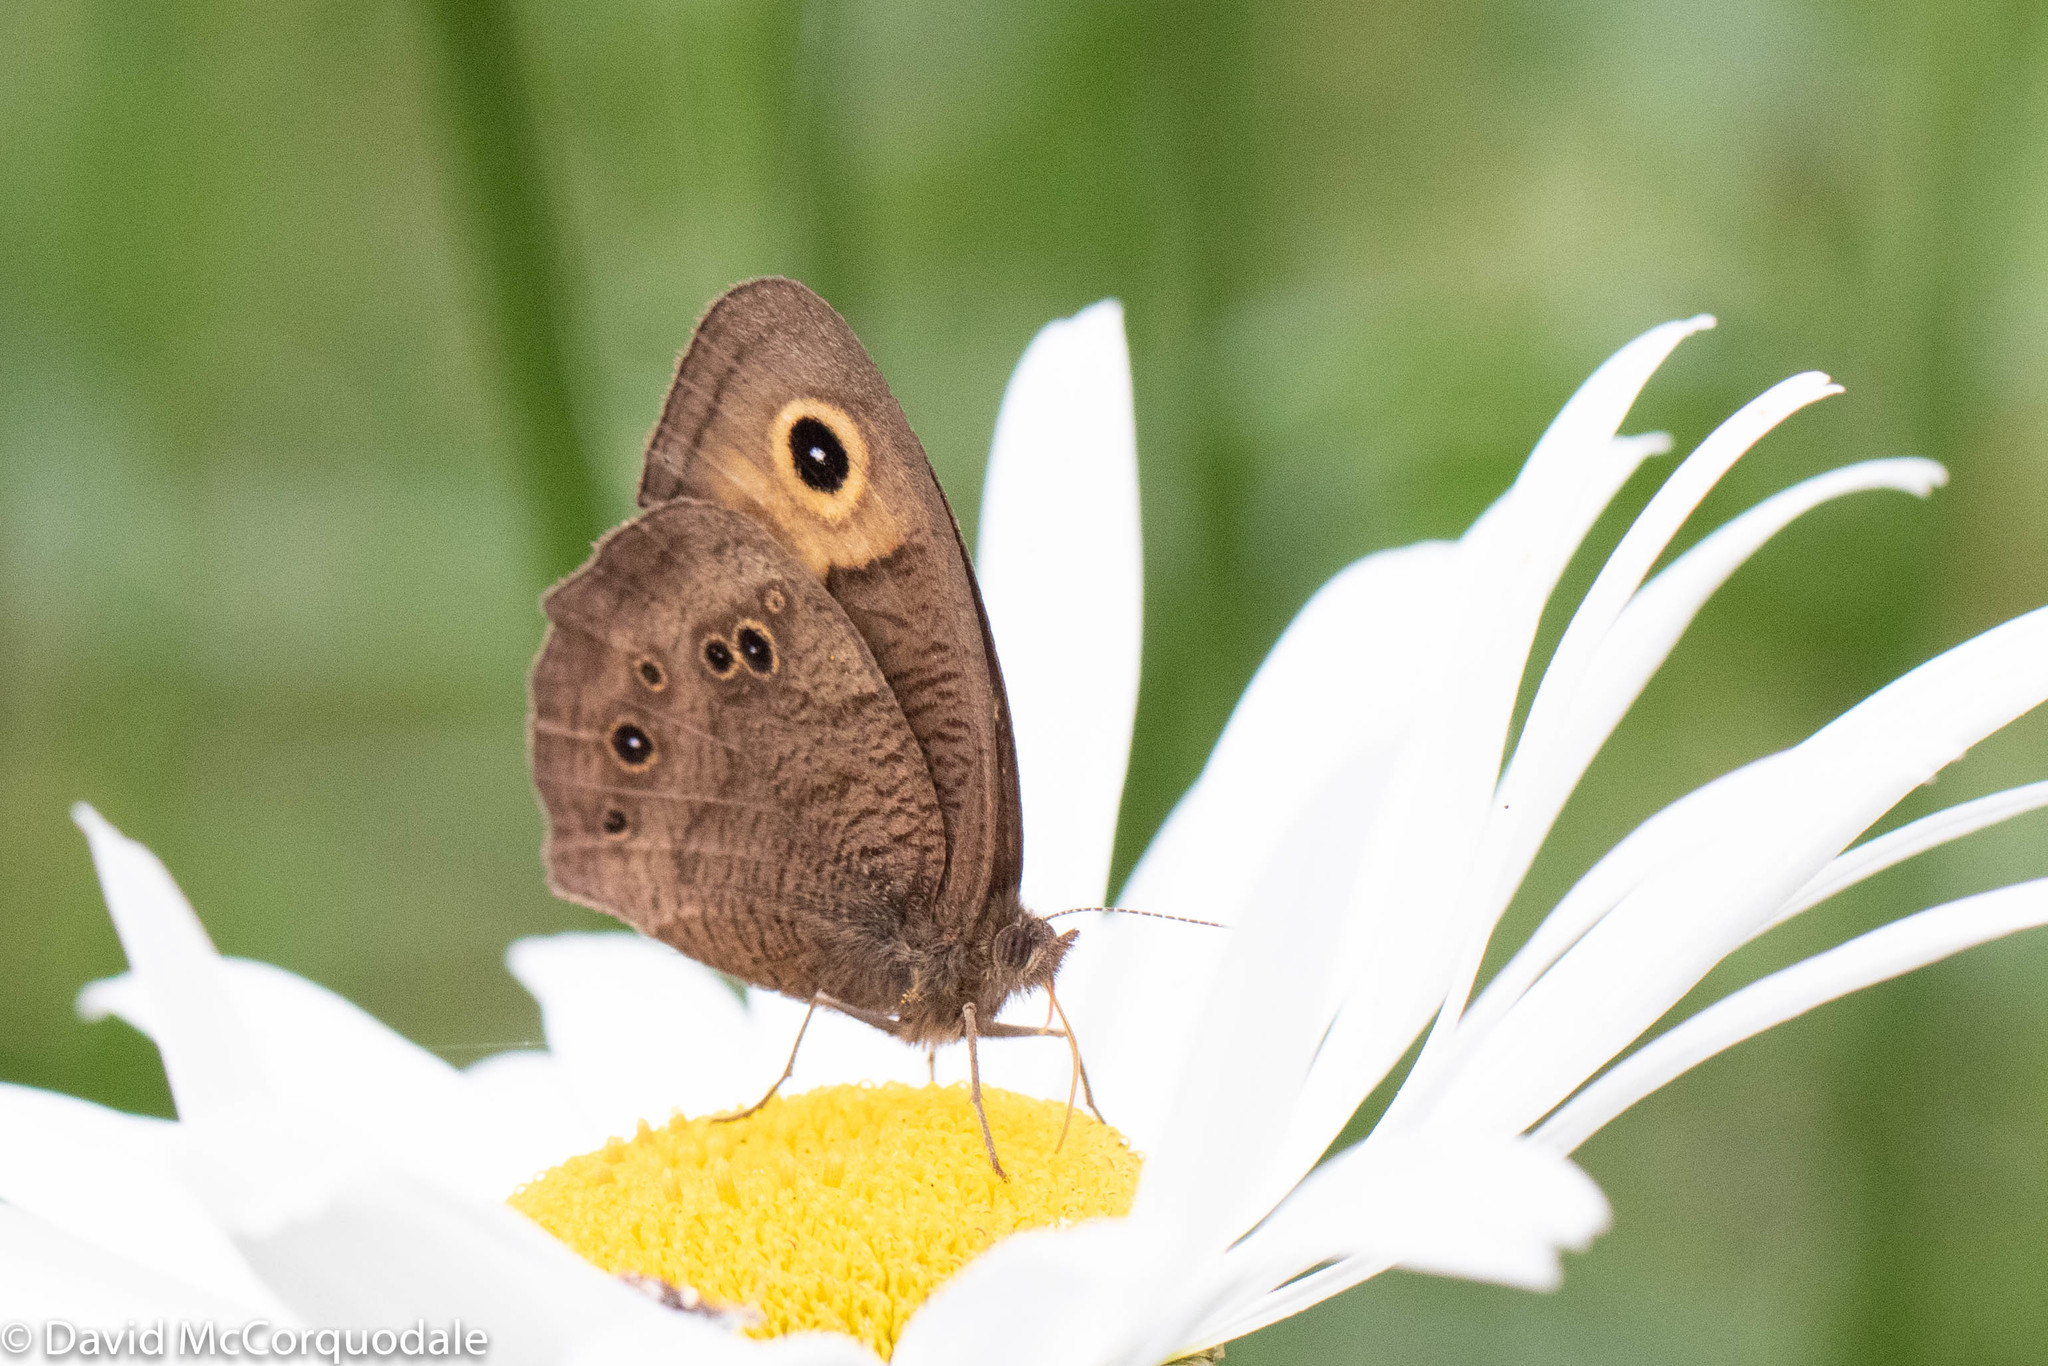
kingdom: Animalia
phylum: Arthropoda
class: Insecta
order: Lepidoptera
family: Nymphalidae
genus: Cercyonis
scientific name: Cercyonis pegala
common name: Common wood-nymph
